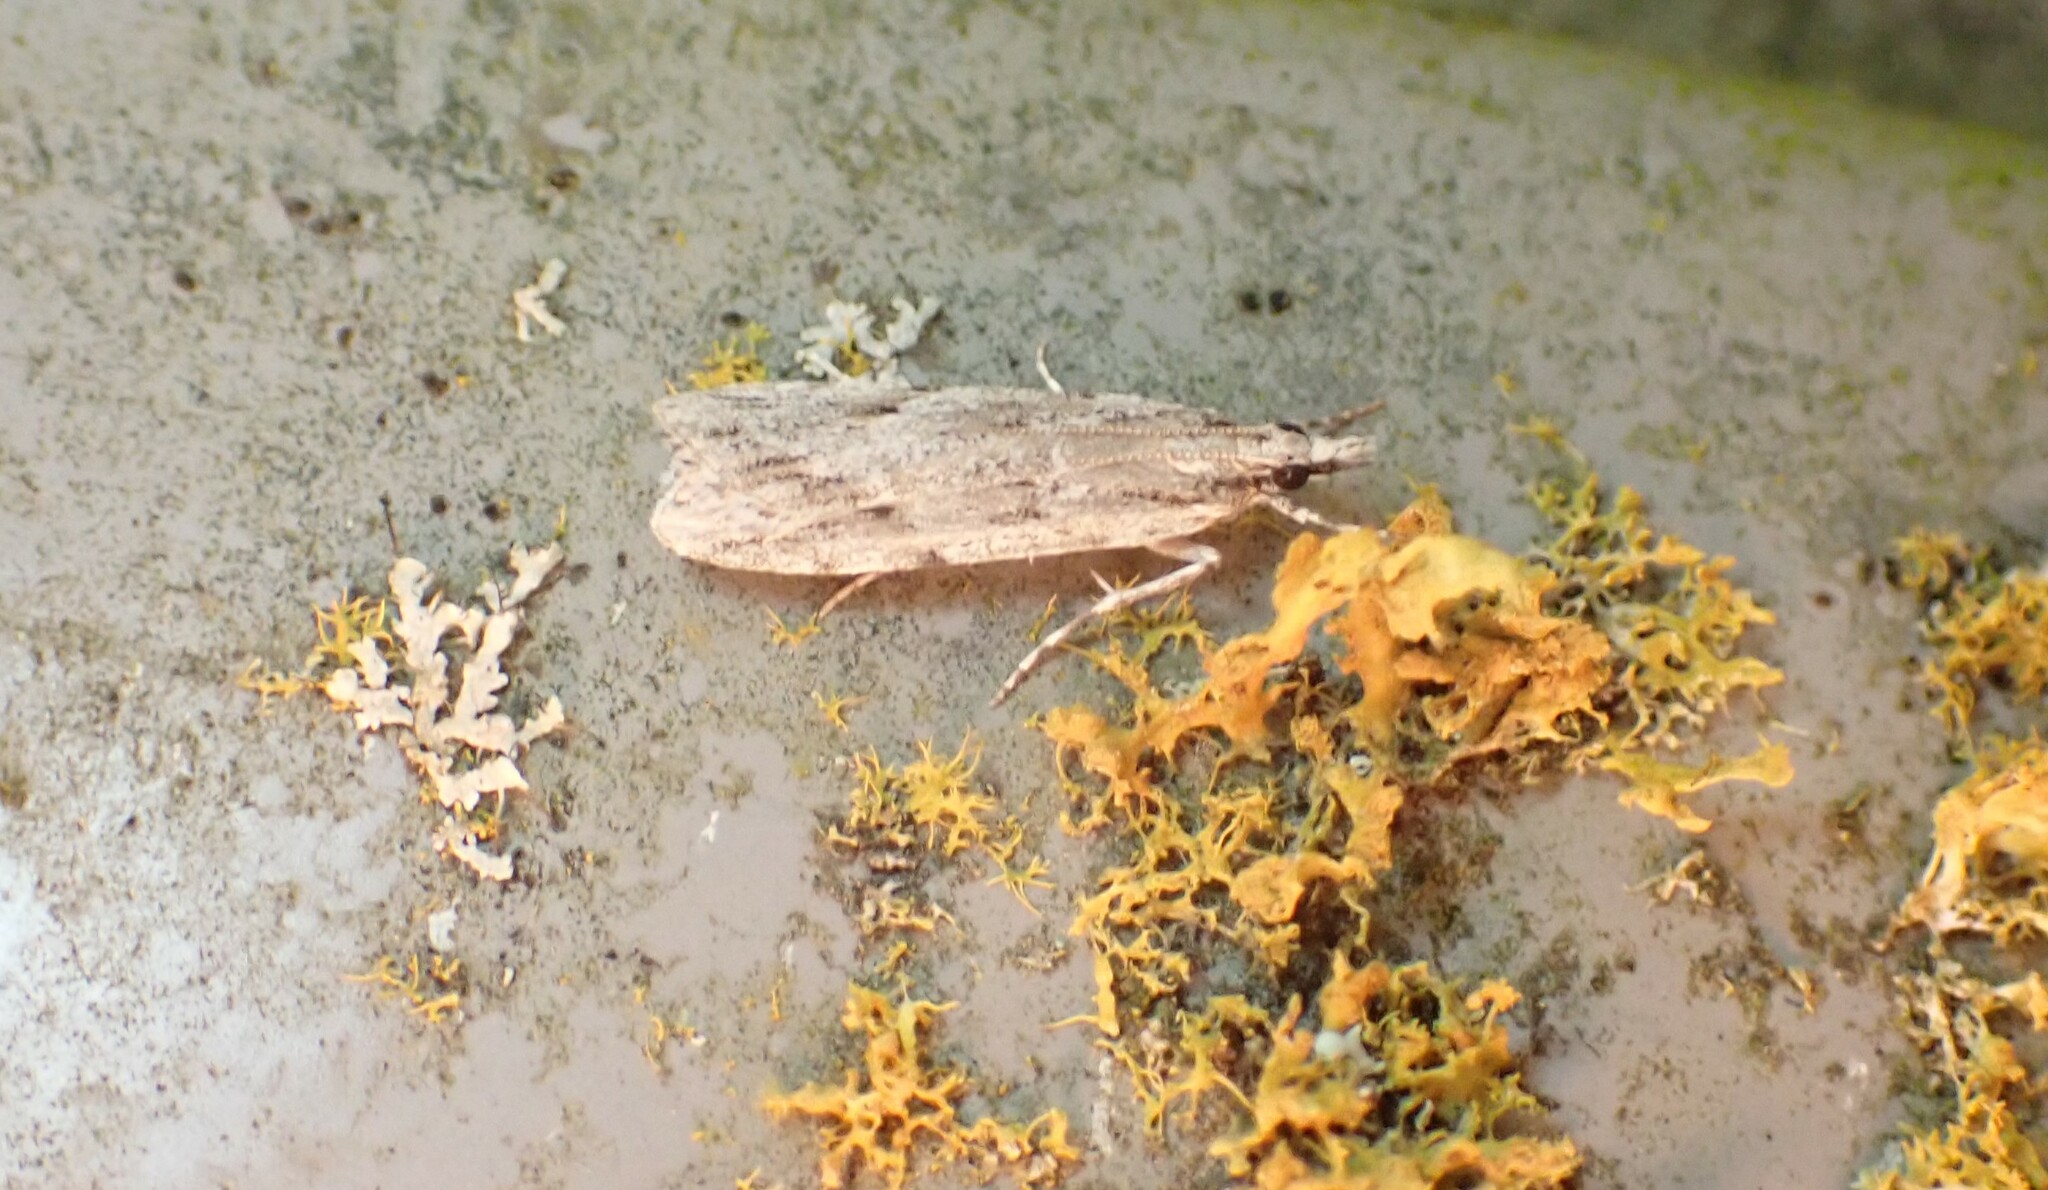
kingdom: Animalia
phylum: Arthropoda
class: Insecta
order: Lepidoptera
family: Crambidae
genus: Scoparia
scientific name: Scoparia chalicodes
